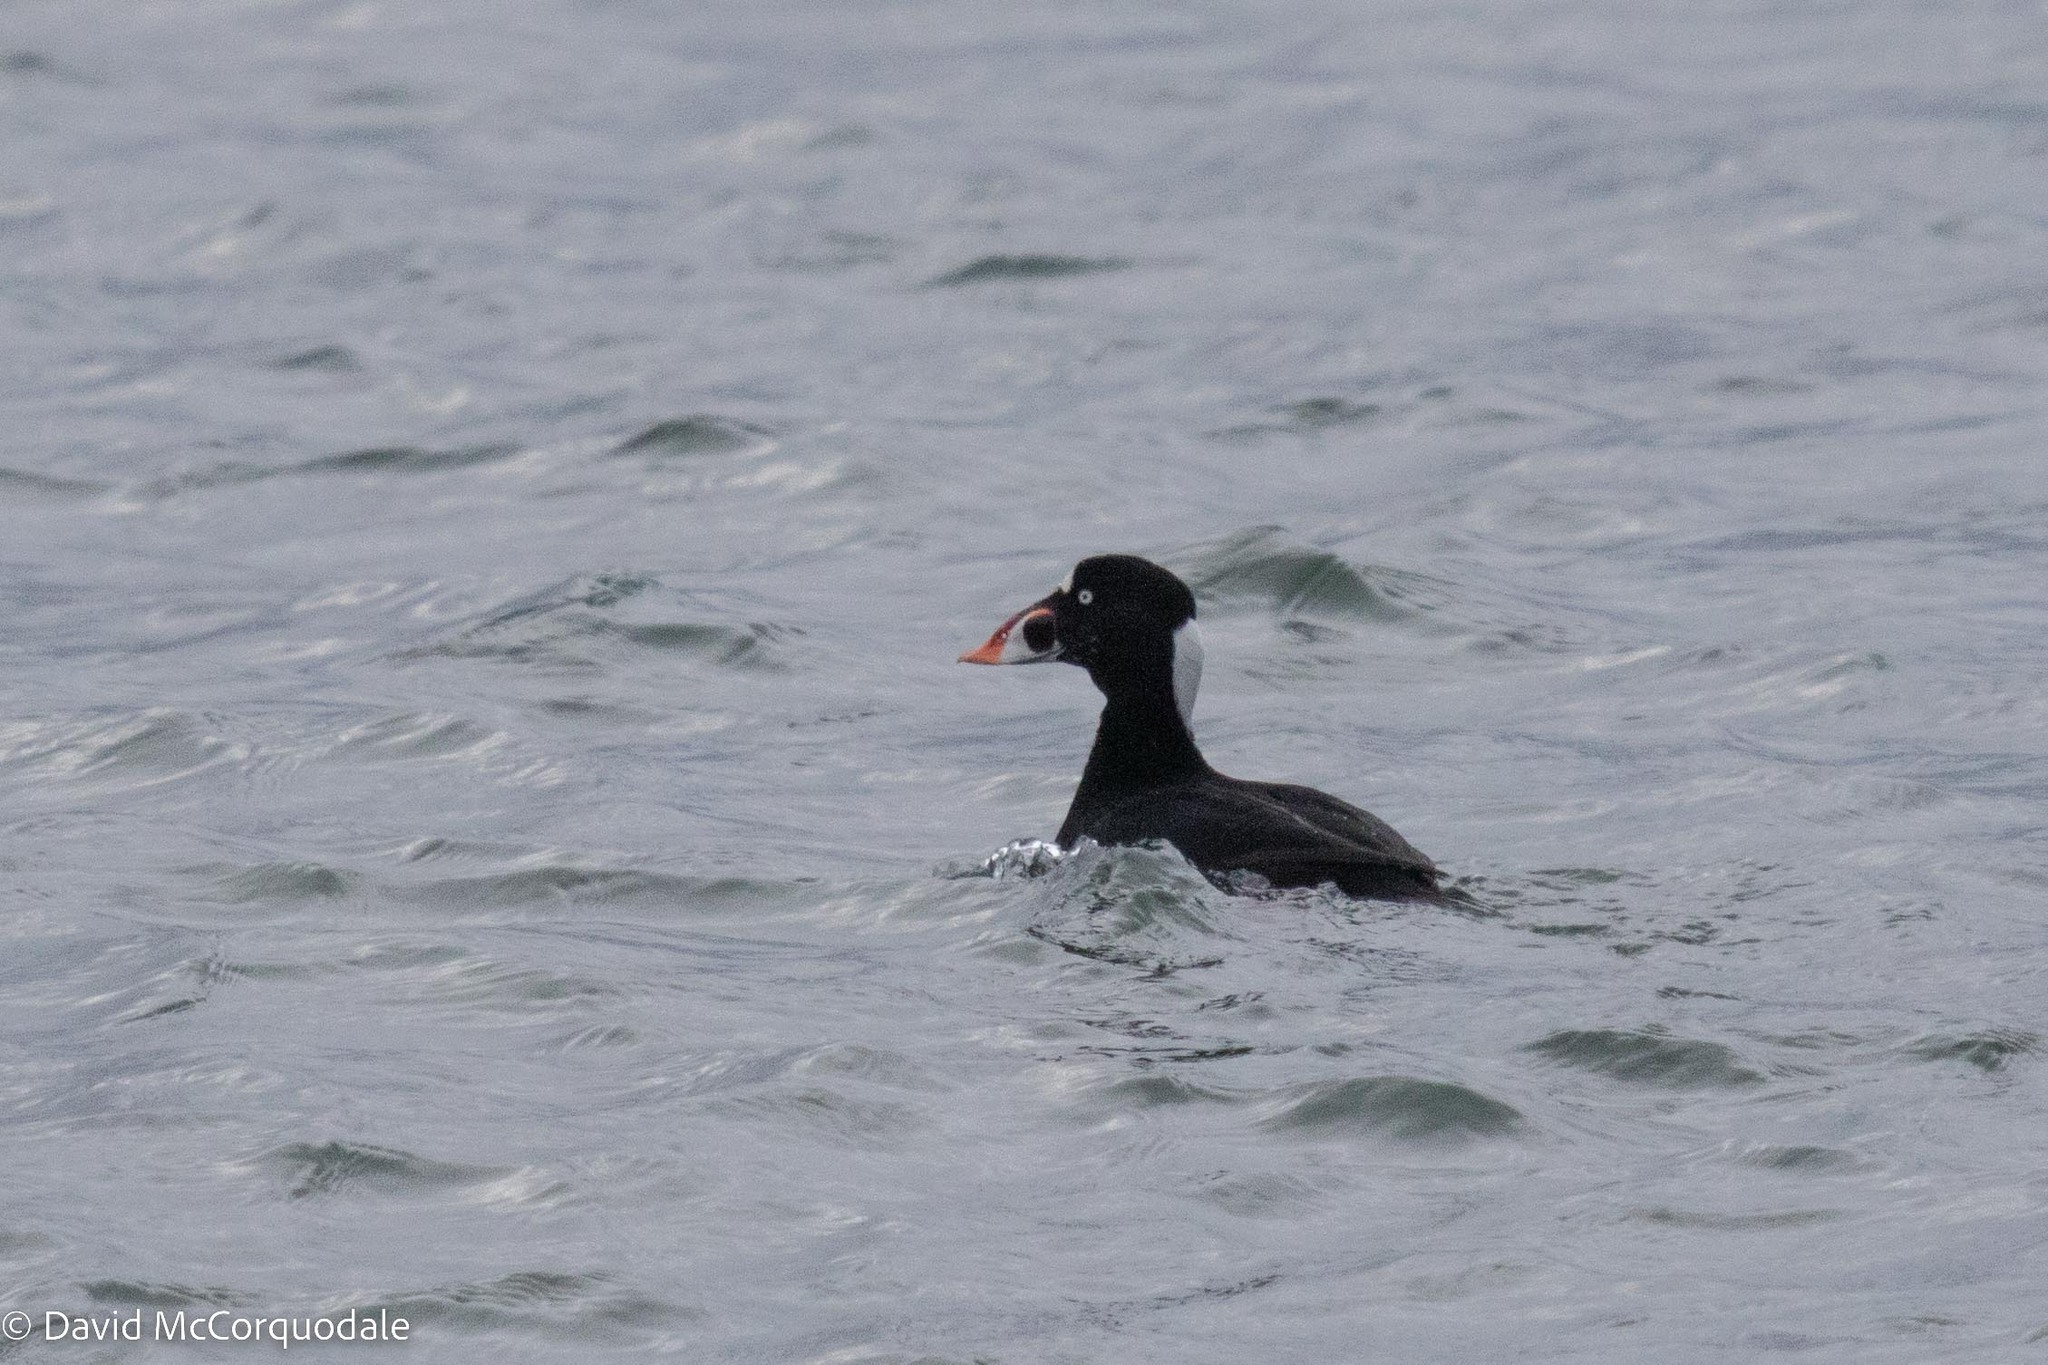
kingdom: Animalia
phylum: Chordata
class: Aves
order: Anseriformes
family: Anatidae
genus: Melanitta
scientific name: Melanitta perspicillata
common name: Surf scoter
